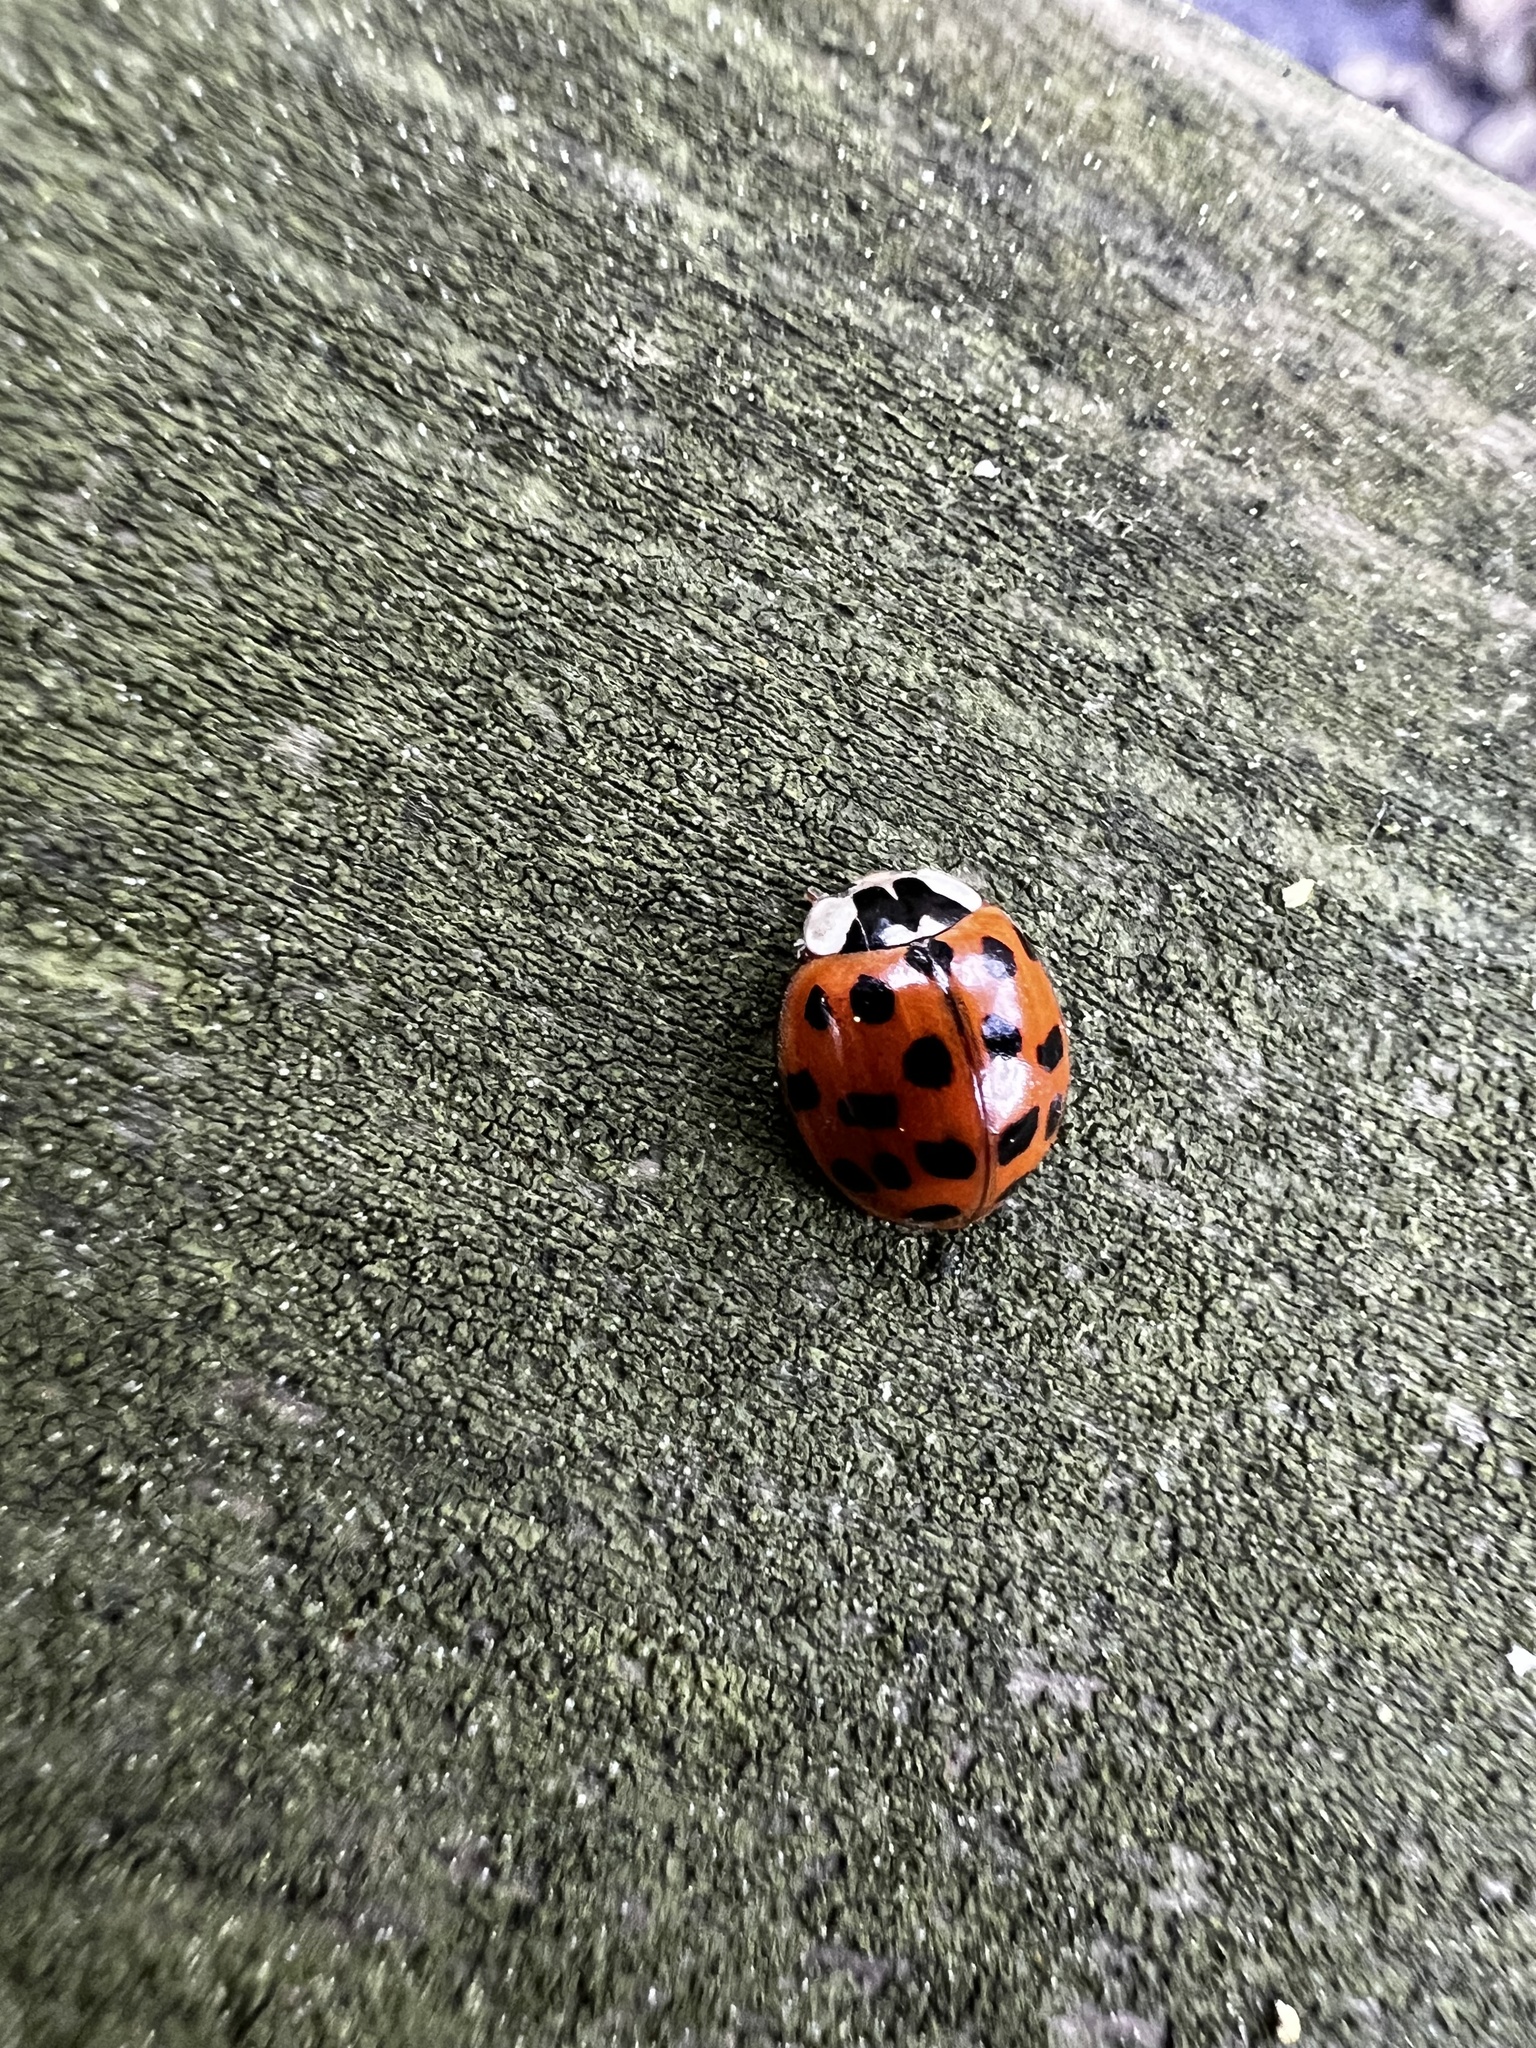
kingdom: Animalia
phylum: Arthropoda
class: Insecta
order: Coleoptera
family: Coccinellidae
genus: Harmonia
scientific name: Harmonia axyridis
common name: Harlequin ladybird
